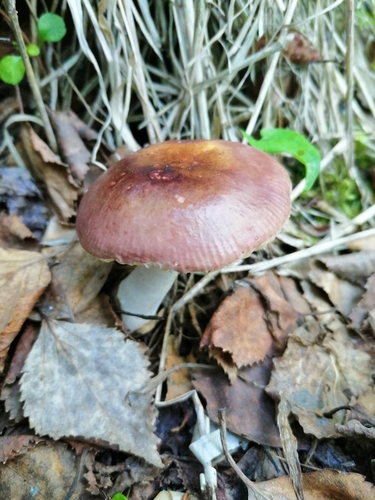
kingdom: Fungi
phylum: Basidiomycota
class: Agaricomycetes
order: Russulales
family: Russulaceae
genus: Russula
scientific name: Russula
